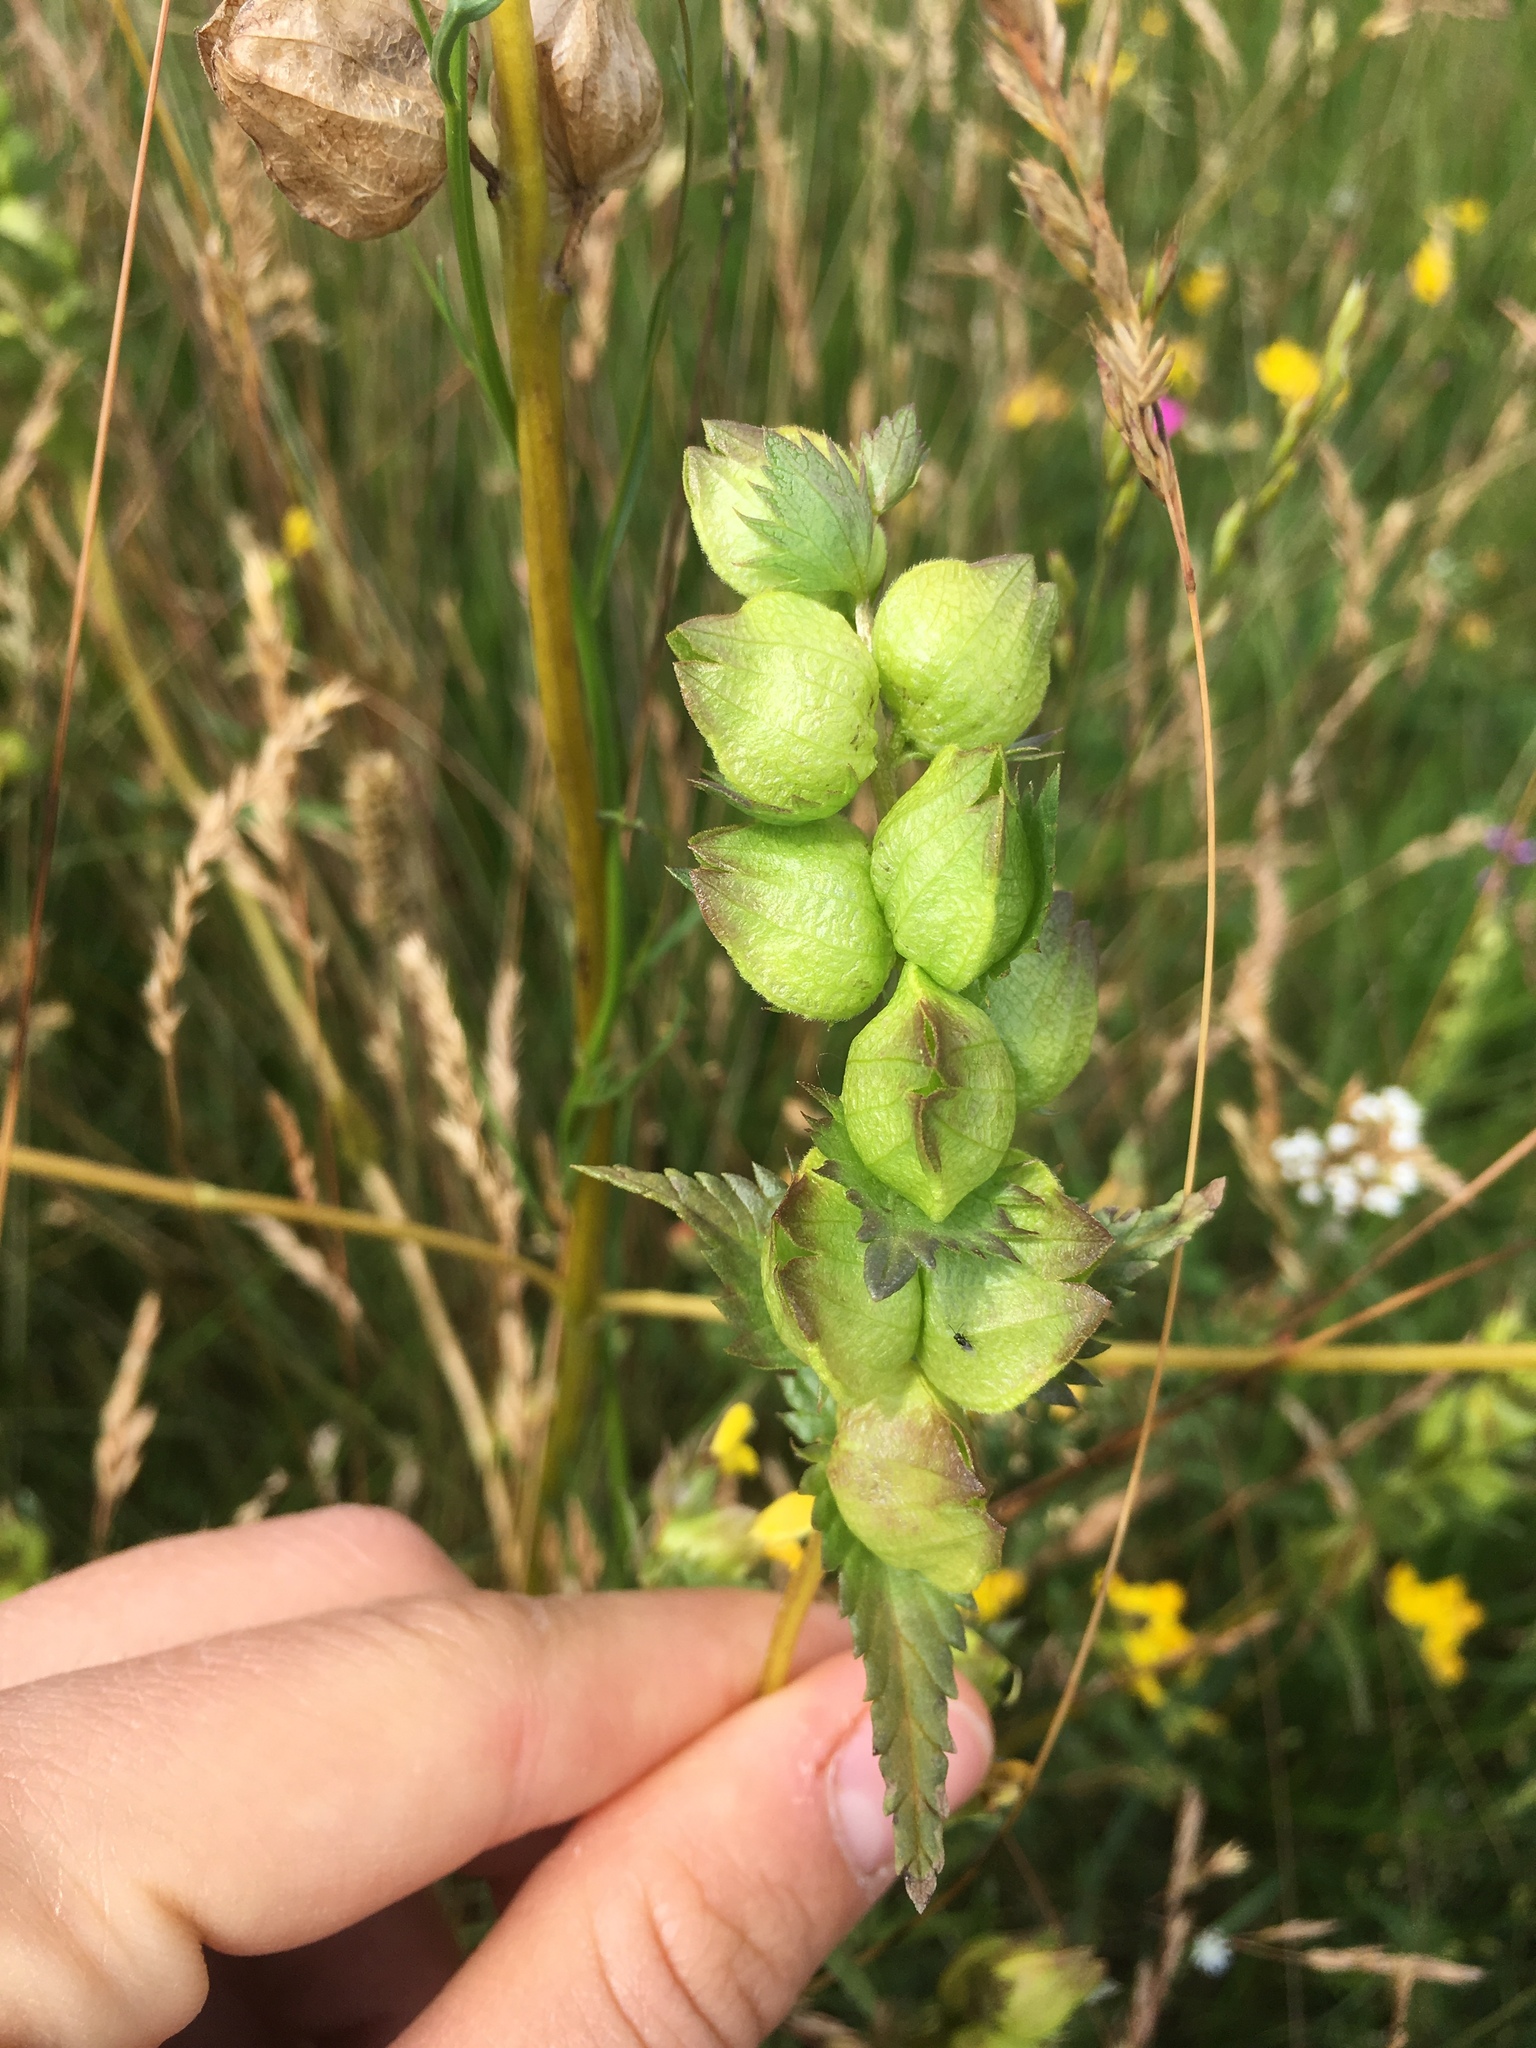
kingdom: Plantae
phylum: Tracheophyta
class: Magnoliopsida
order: Lamiales
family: Orobanchaceae
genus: Rhinanthus
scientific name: Rhinanthus minor
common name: Yellow-rattle
